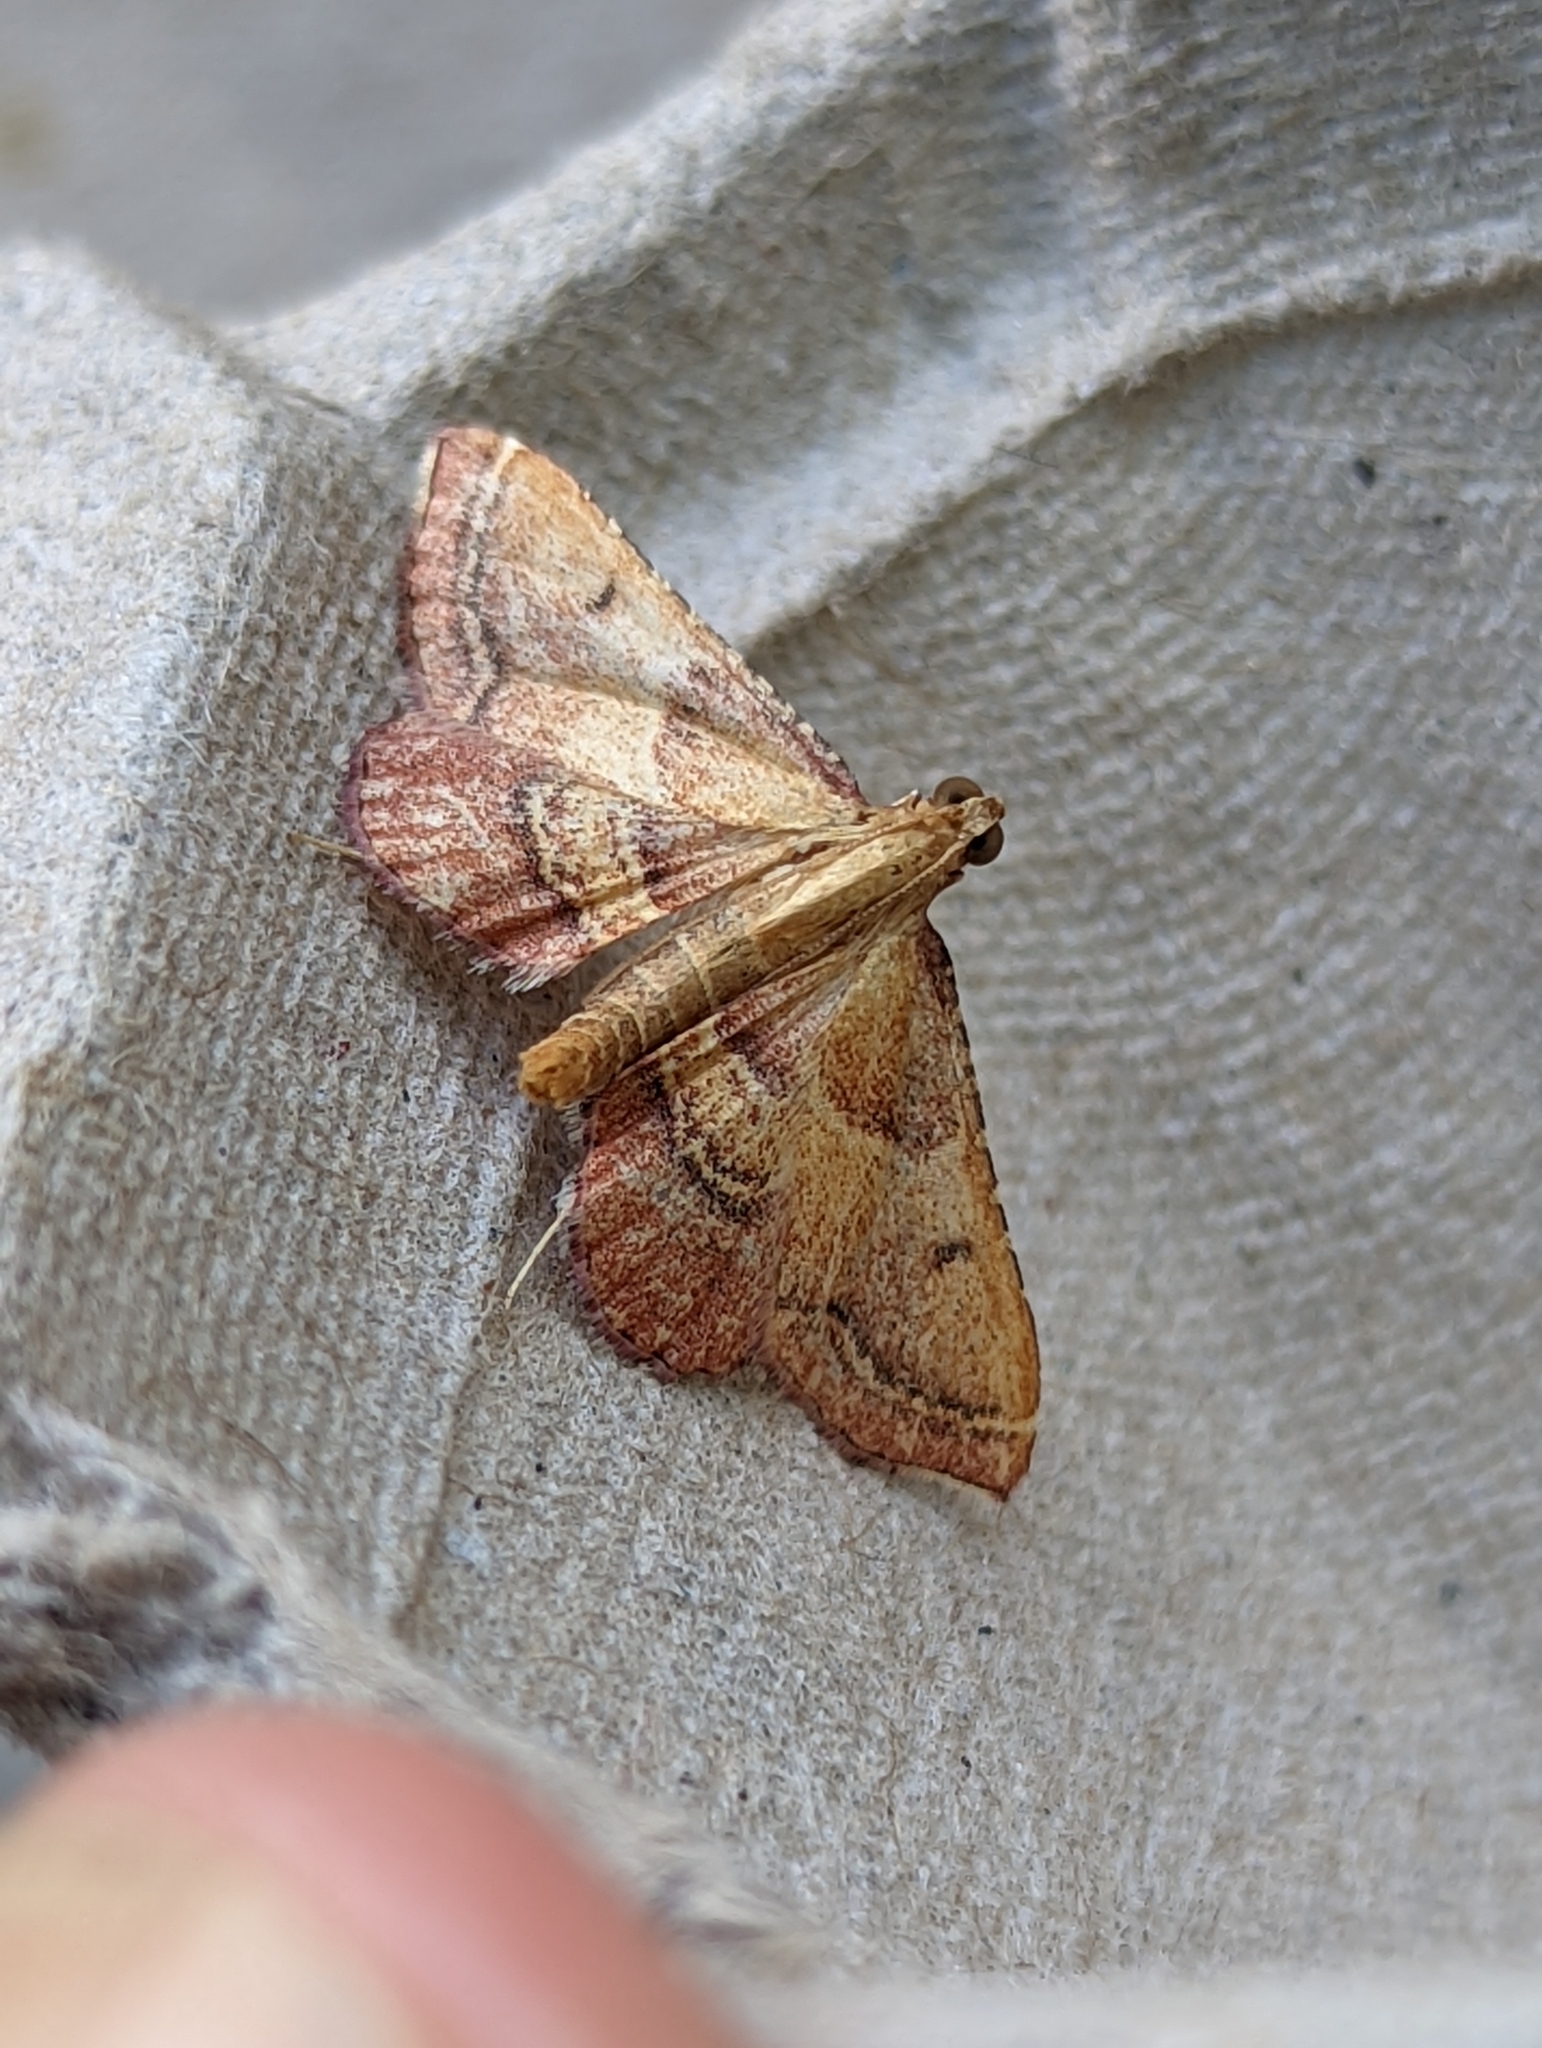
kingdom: Animalia
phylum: Arthropoda
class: Insecta
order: Lepidoptera
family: Pyralidae
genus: Endotricha
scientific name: Endotricha flammealis
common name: Rosy tabby
